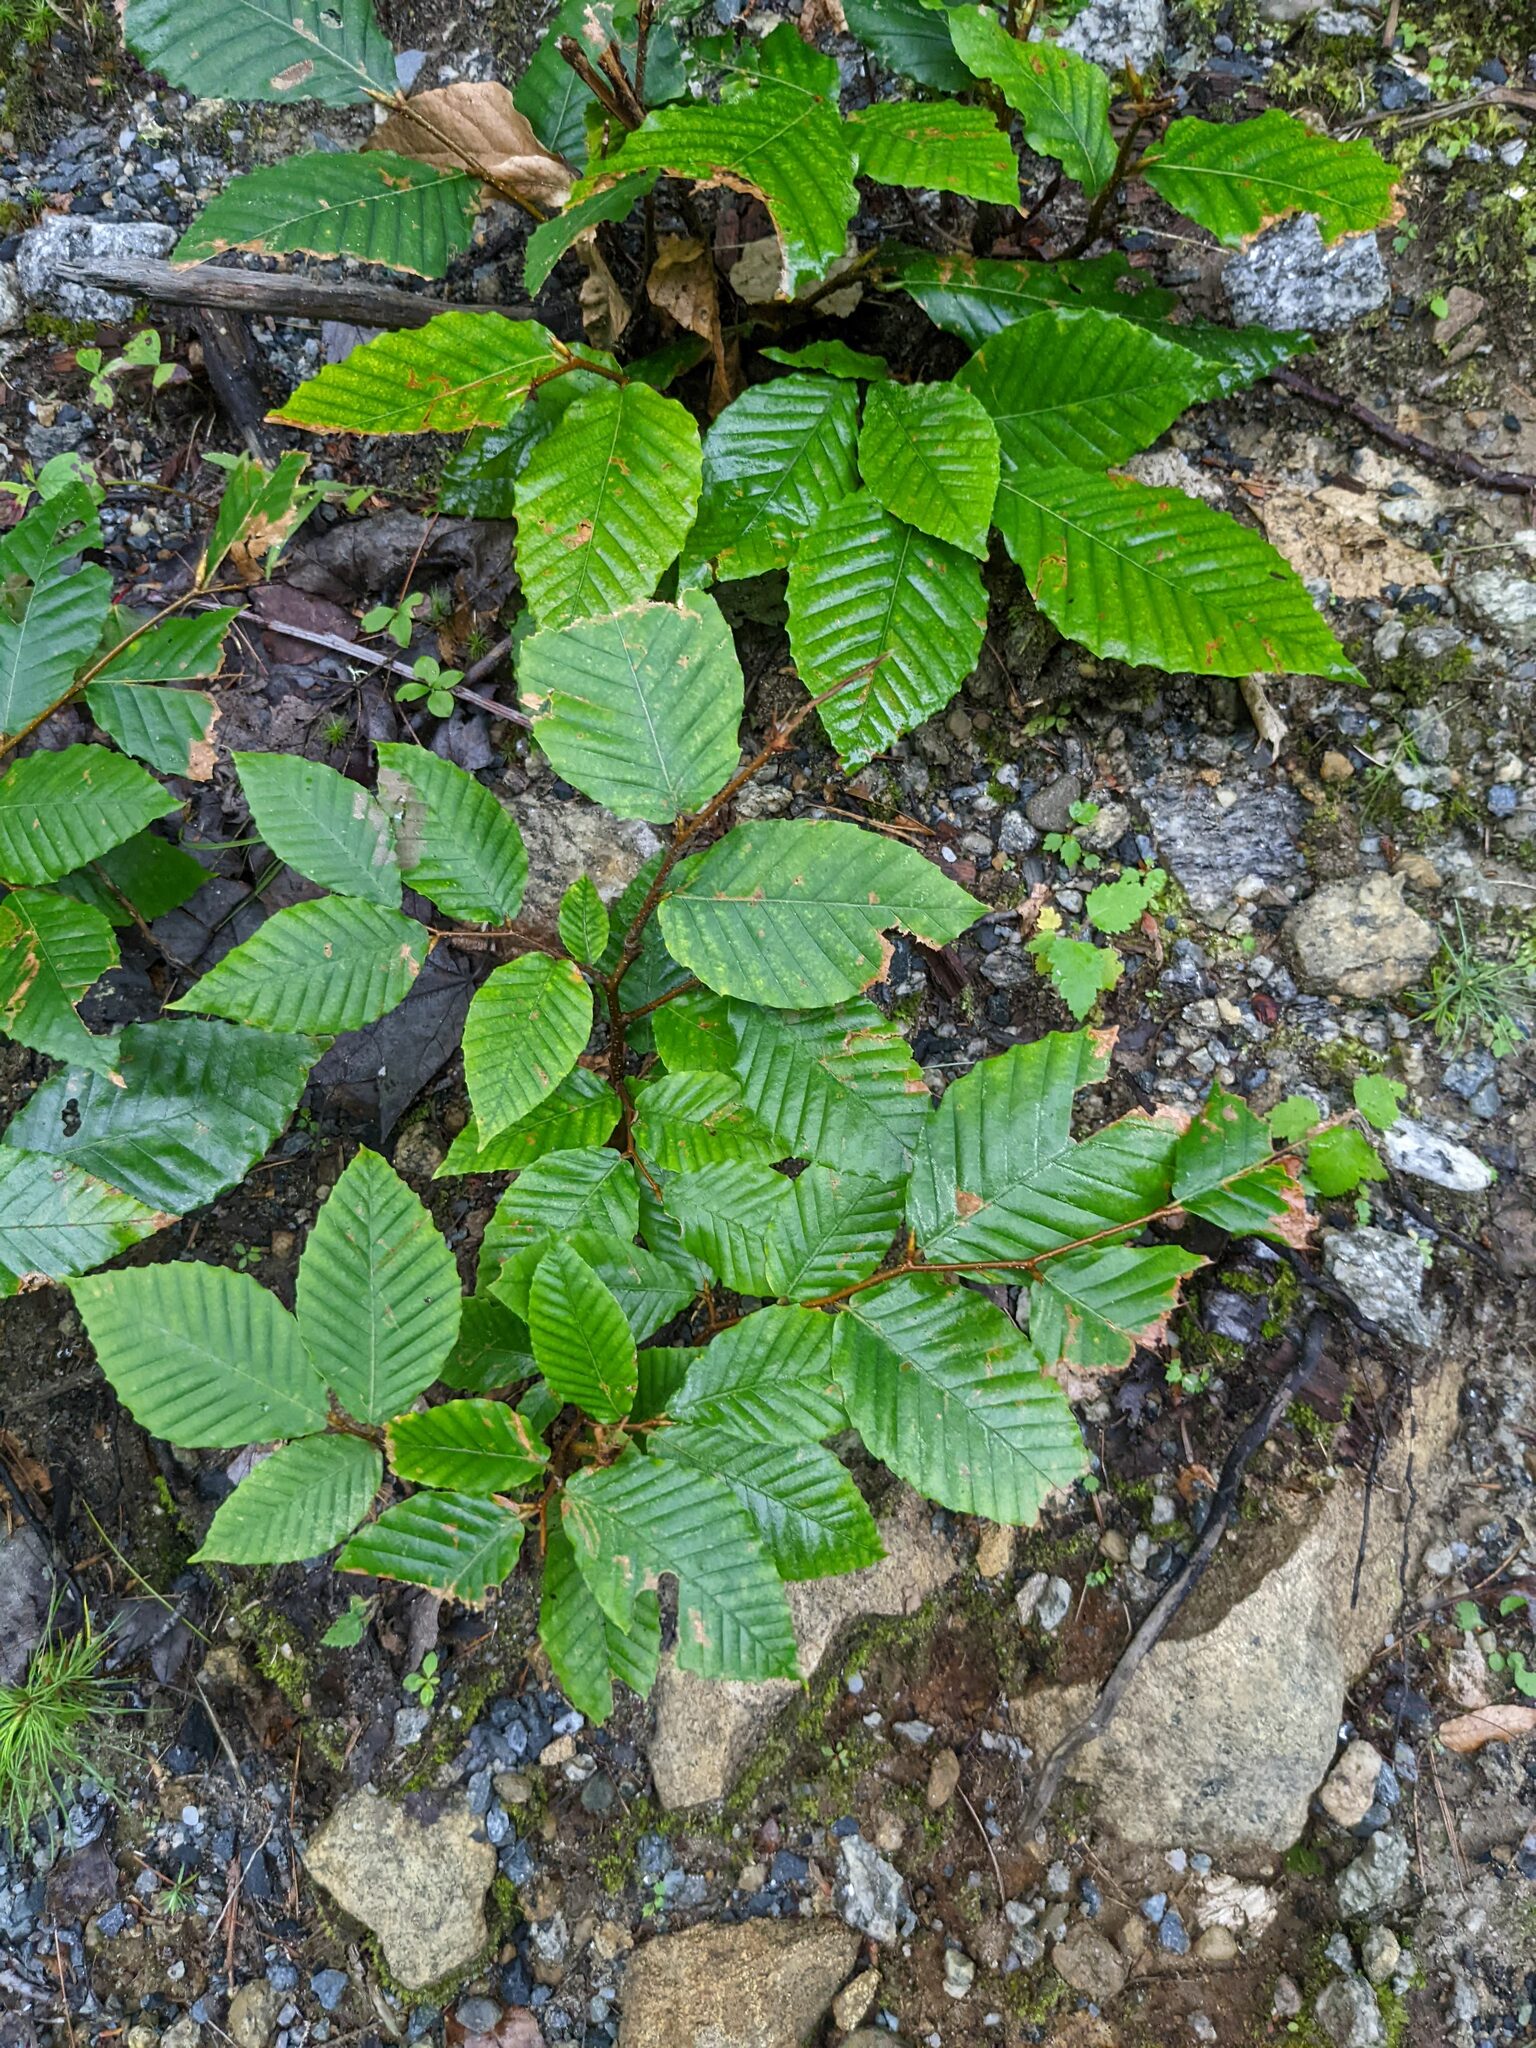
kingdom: Plantae
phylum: Tracheophyta
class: Magnoliopsida
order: Fagales
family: Fagaceae
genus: Fagus
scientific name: Fagus grandifolia
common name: American beech
